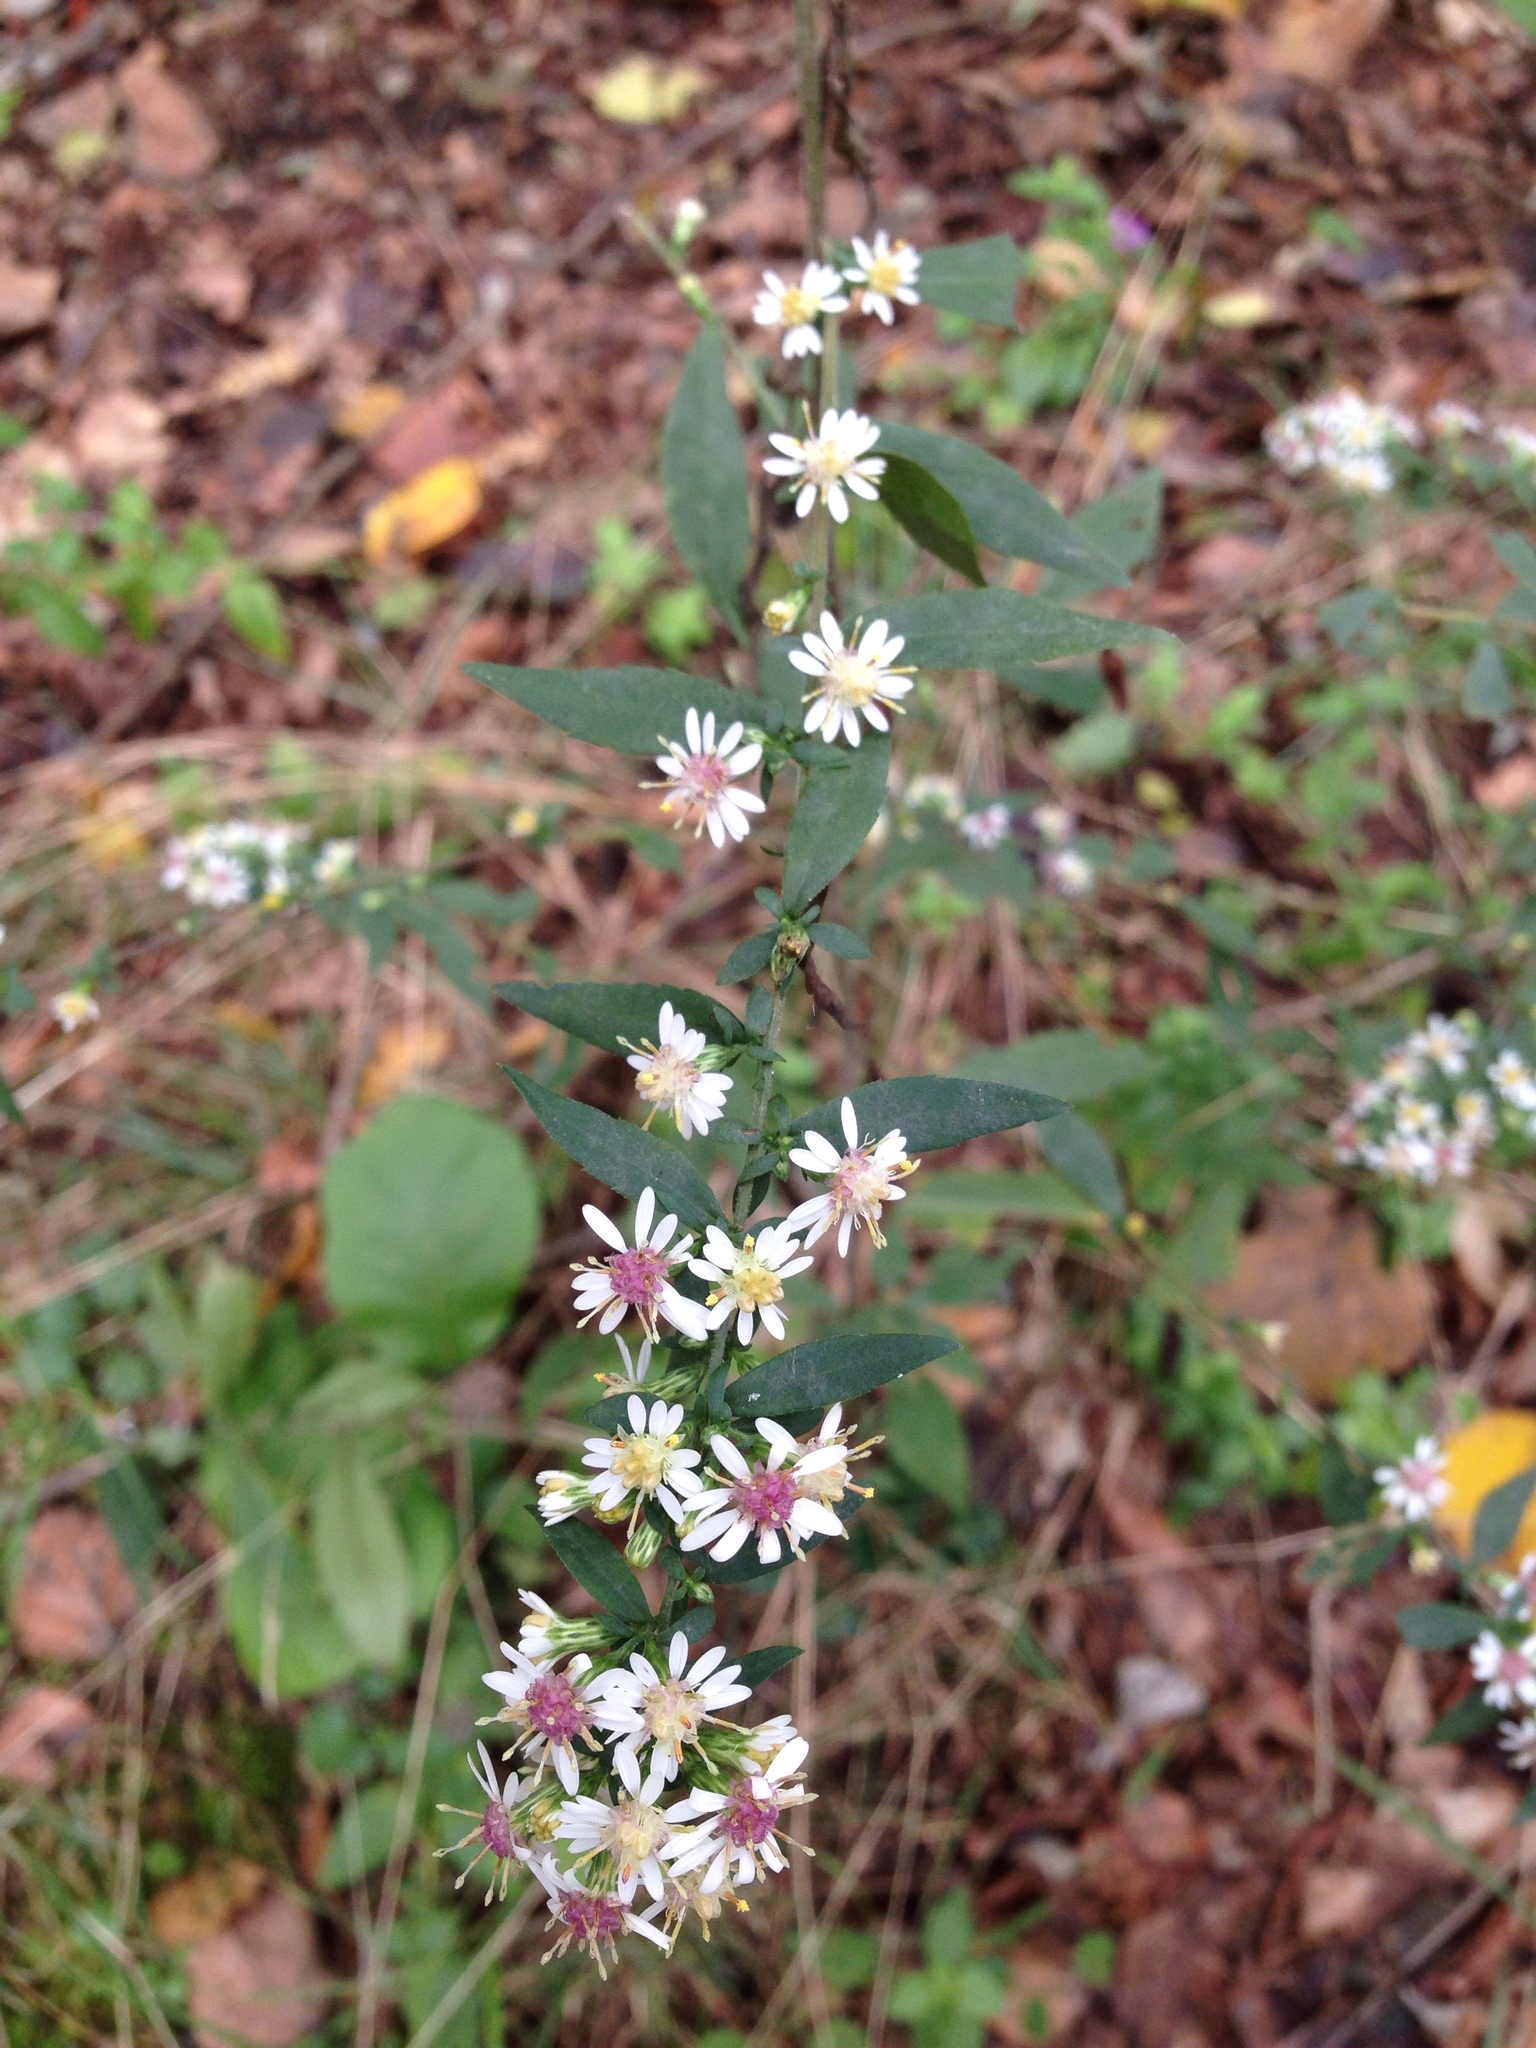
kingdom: Plantae
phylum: Tracheophyta
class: Magnoliopsida
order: Asterales
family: Asteraceae
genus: Symphyotrichum
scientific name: Symphyotrichum lateriflorum
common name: Calico aster
